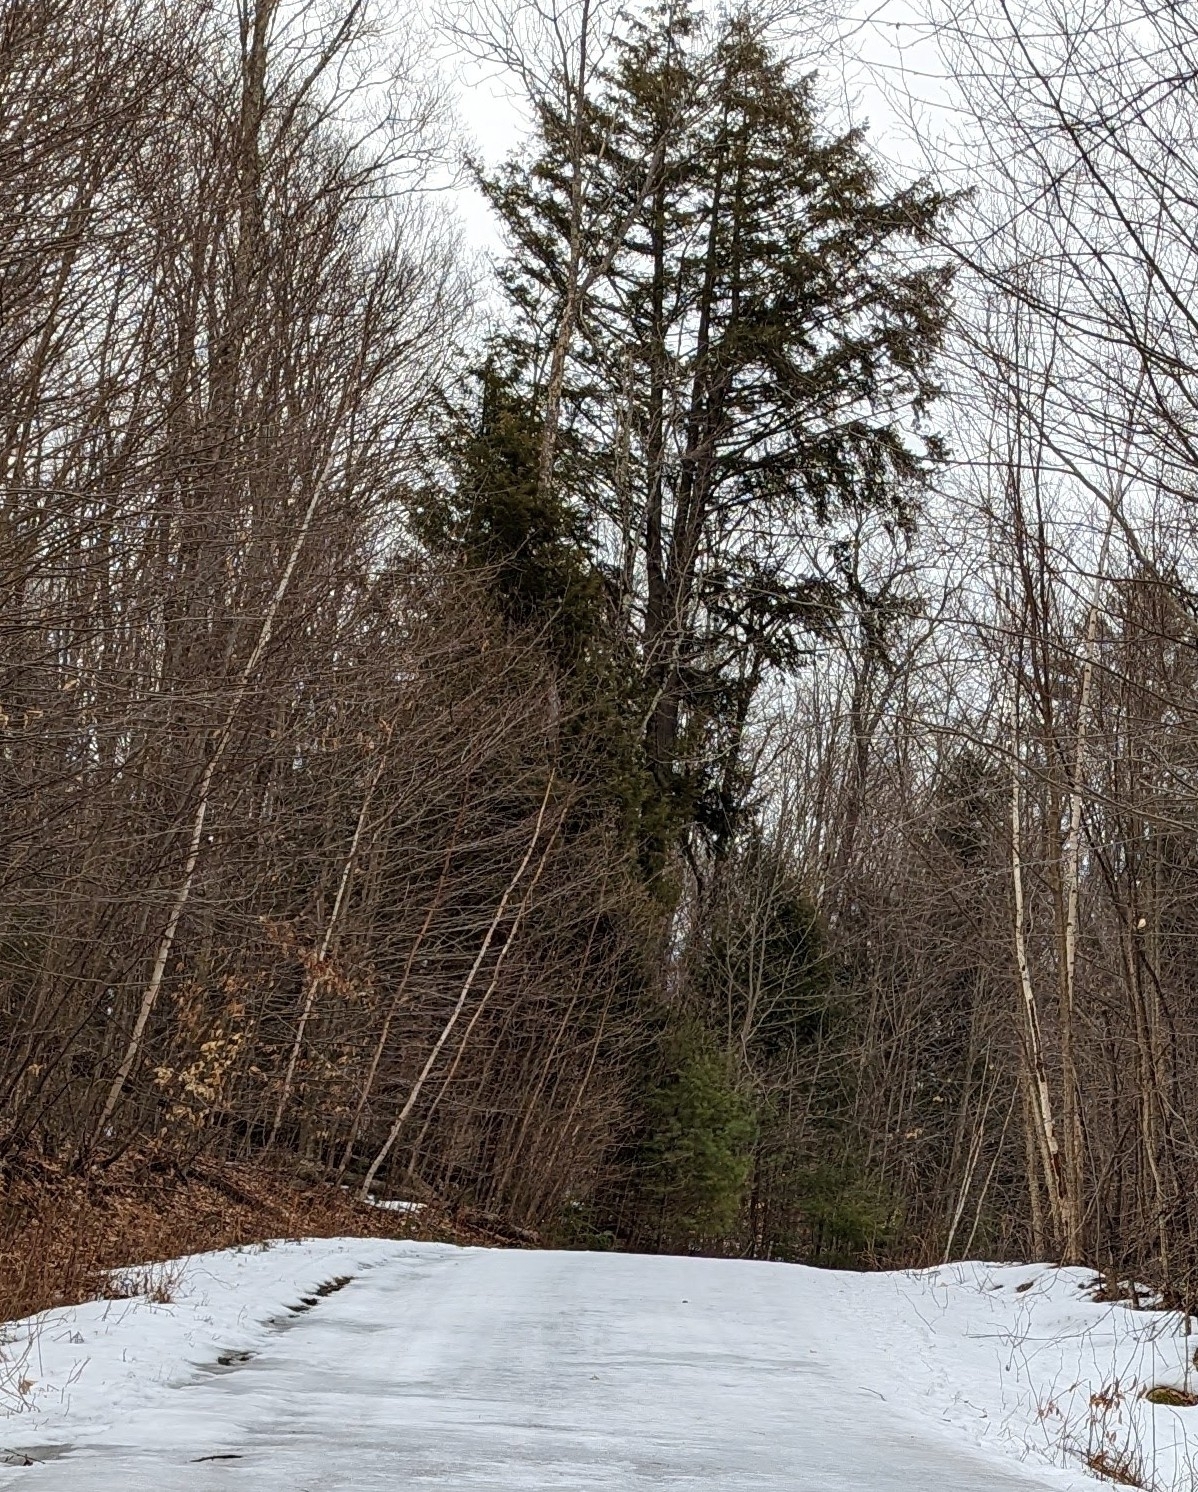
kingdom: Plantae
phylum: Tracheophyta
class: Pinopsida
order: Pinales
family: Pinaceae
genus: Tsuga
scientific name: Tsuga canadensis
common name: Eastern hemlock
